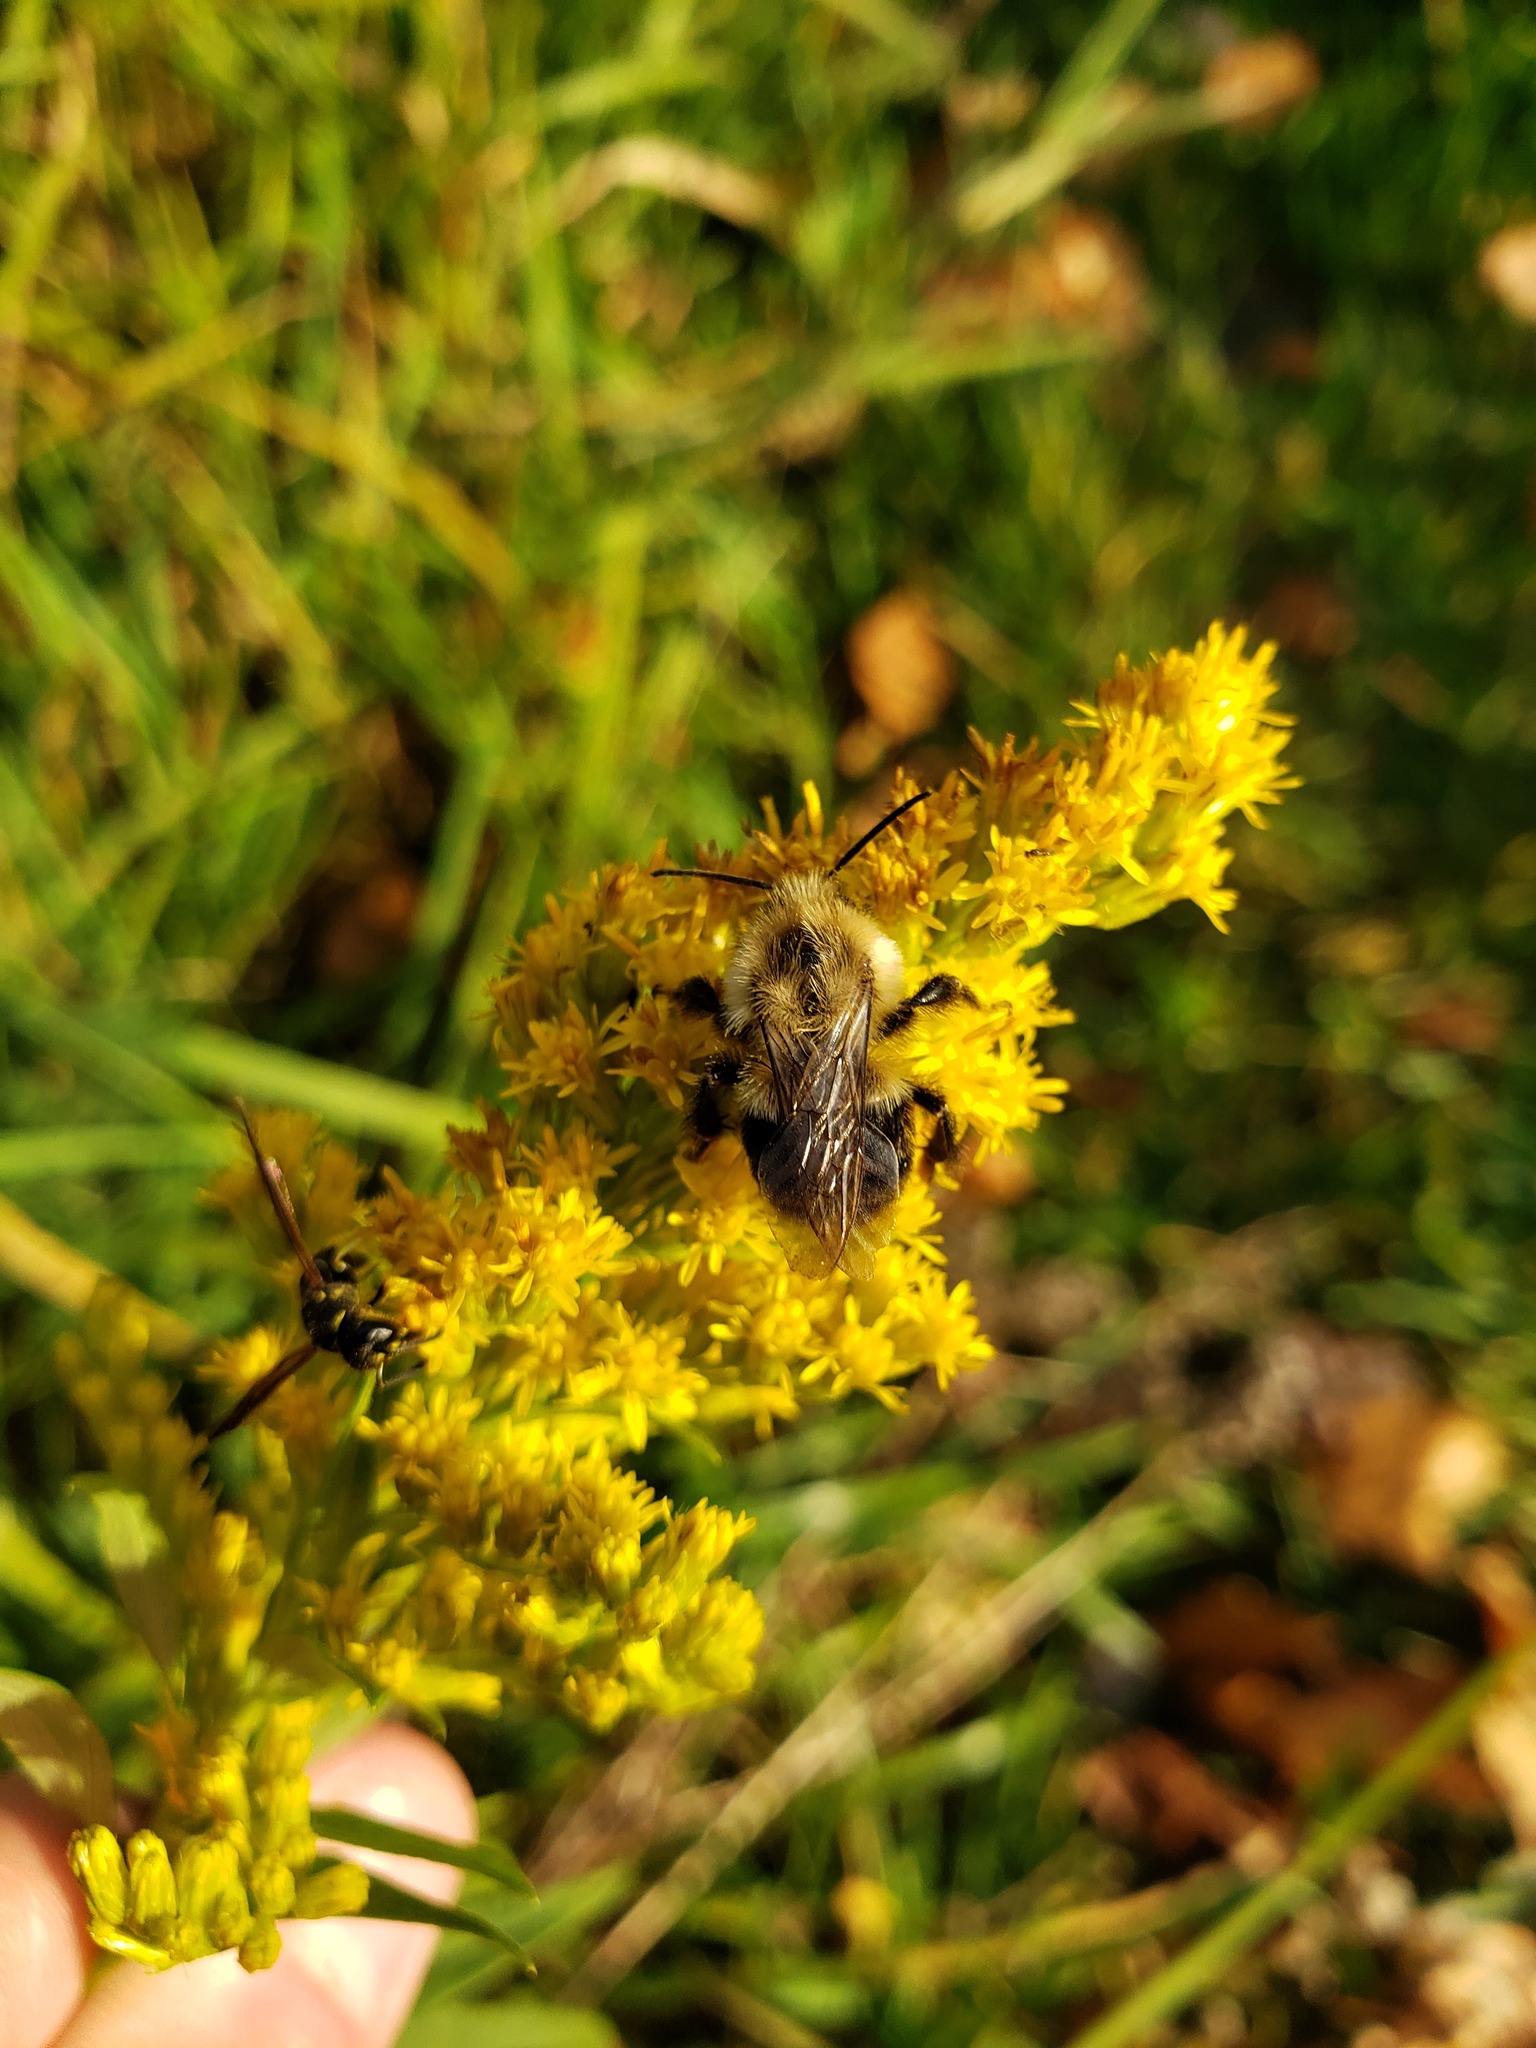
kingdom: Animalia
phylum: Arthropoda
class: Insecta
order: Hymenoptera
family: Apidae
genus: Bombus
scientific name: Bombus impatiens
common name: Common eastern bumble bee
